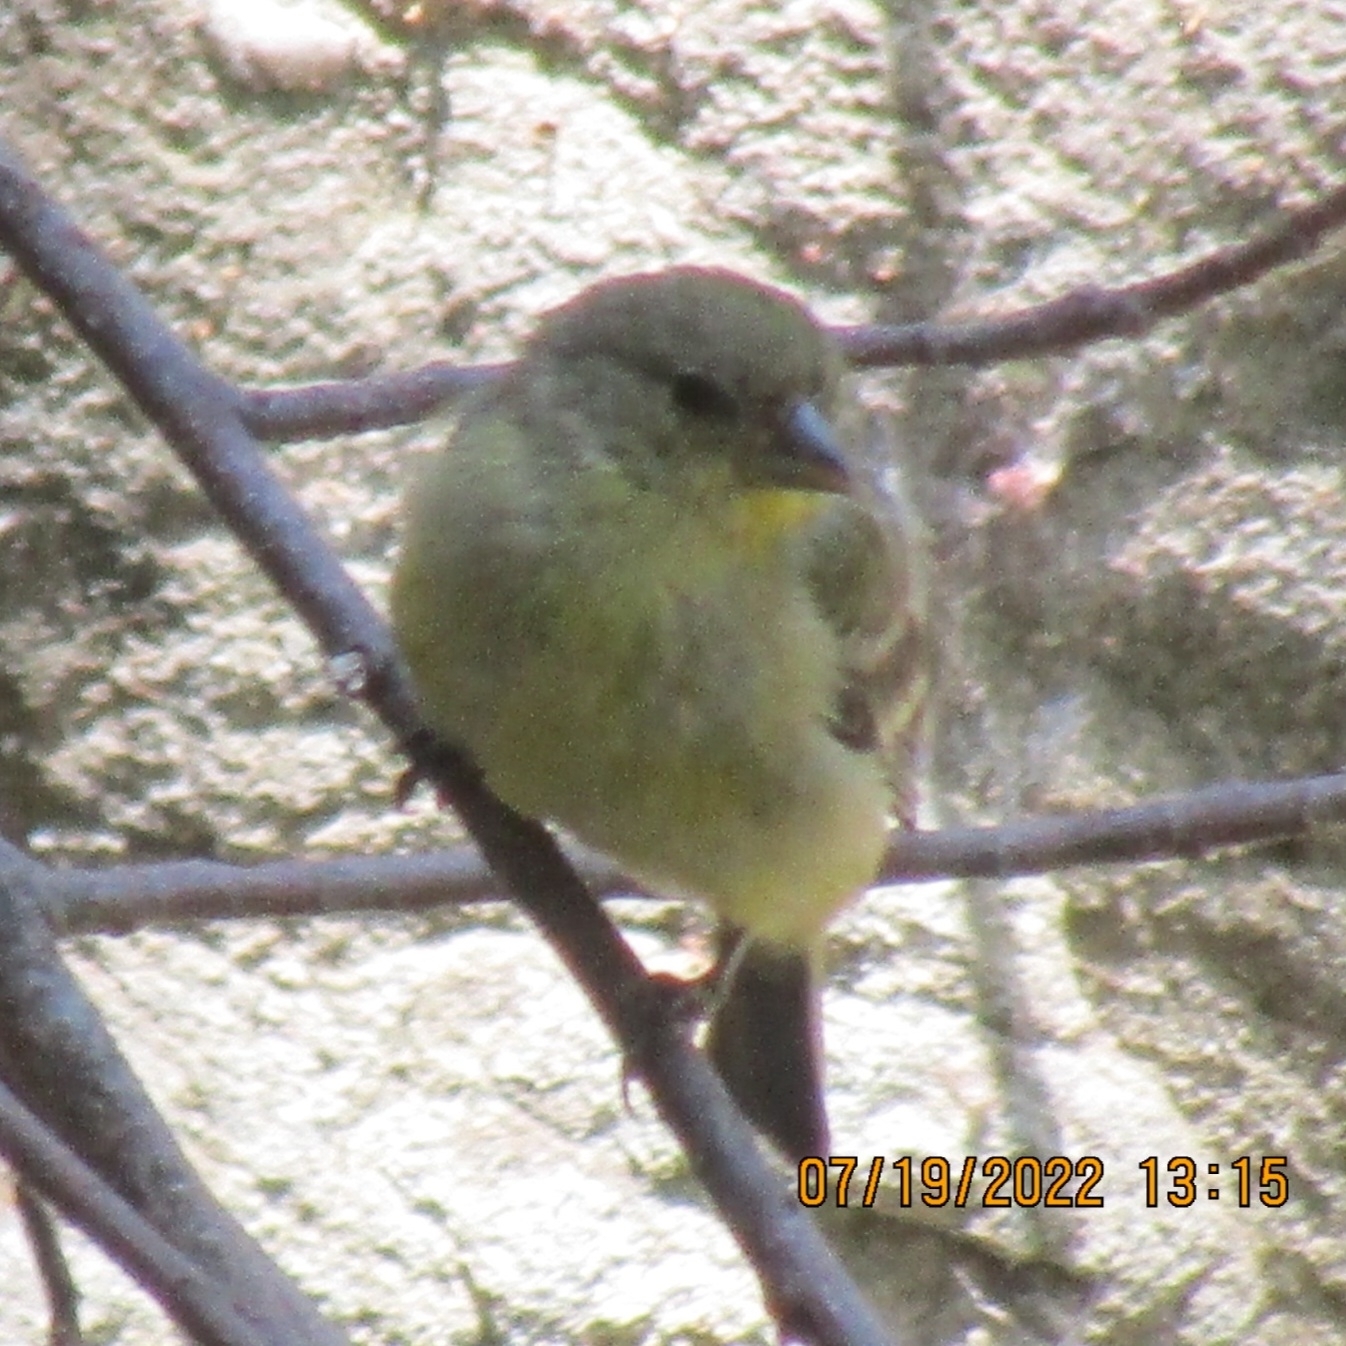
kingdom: Animalia
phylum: Chordata
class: Aves
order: Passeriformes
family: Fringillidae
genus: Spinus
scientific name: Spinus psaltria
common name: Lesser goldfinch
